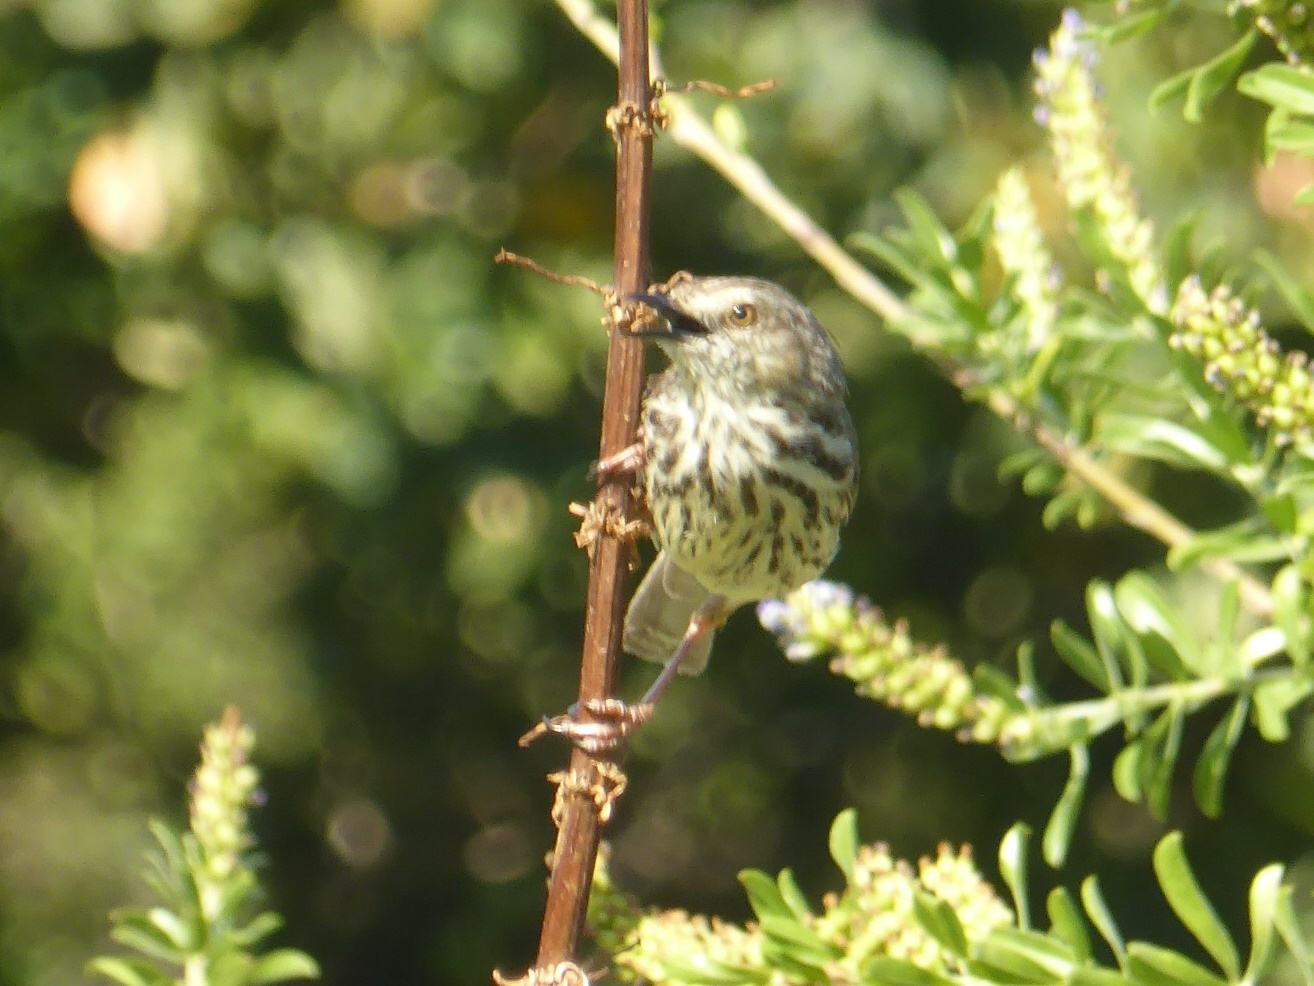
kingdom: Animalia
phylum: Chordata
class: Aves
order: Passeriformes
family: Cisticolidae
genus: Prinia
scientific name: Prinia maculosa
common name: Karoo prinia
